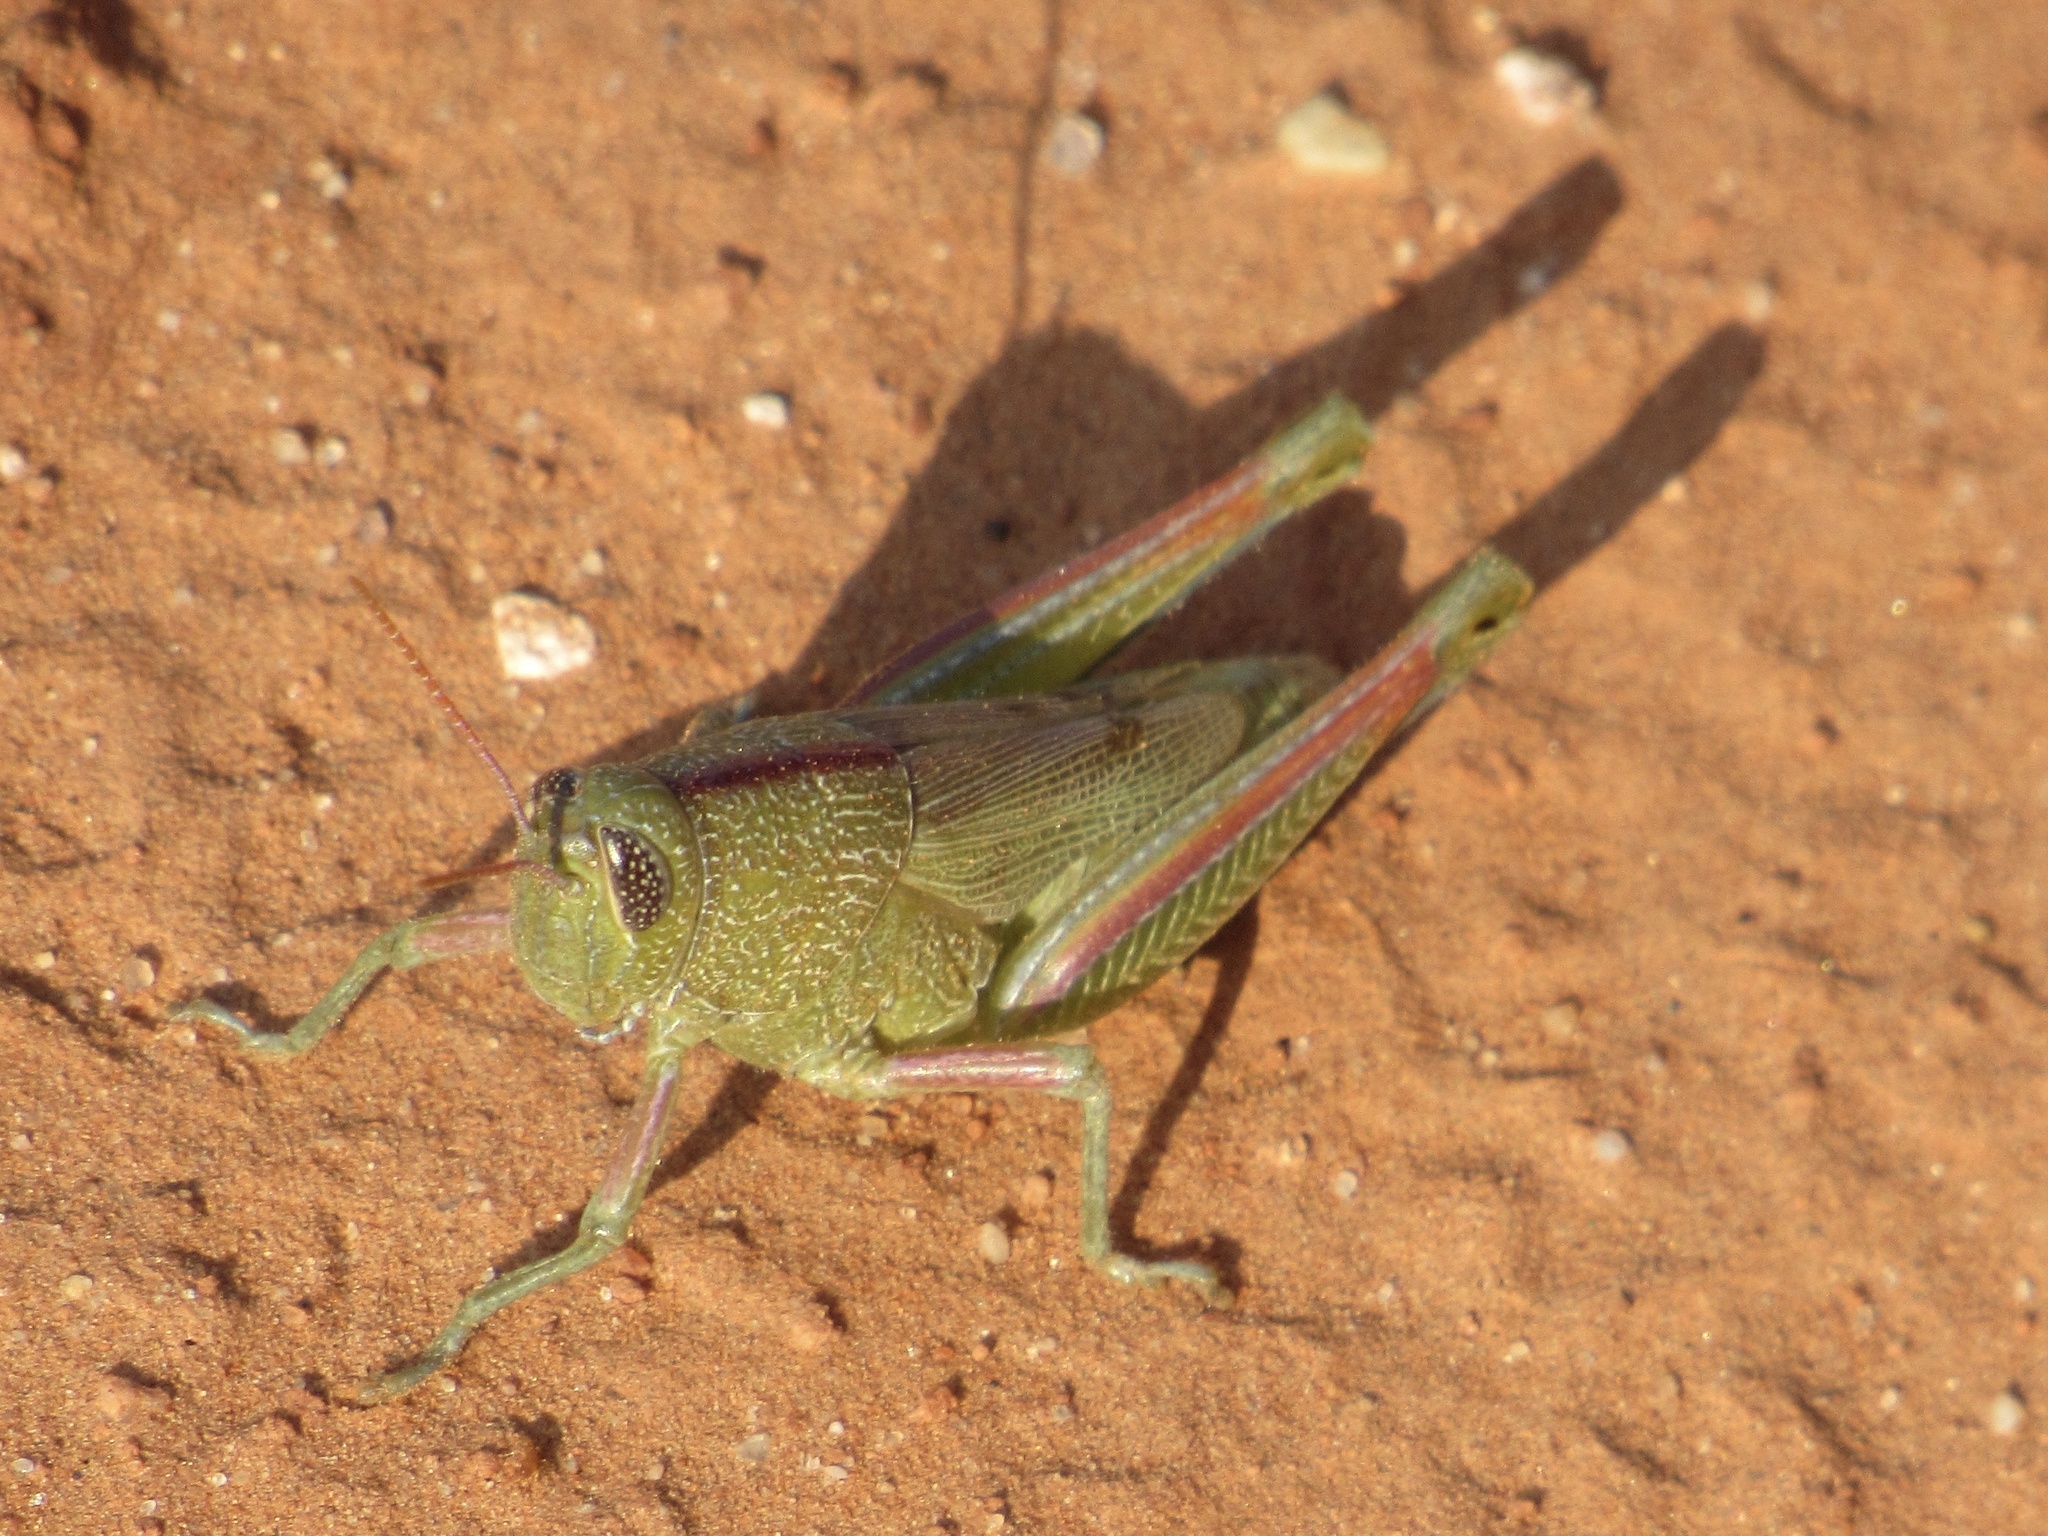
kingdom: Animalia
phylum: Arthropoda
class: Insecta
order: Orthoptera
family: Acrididae
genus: Hesperotettix
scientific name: Hesperotettix speciosus
